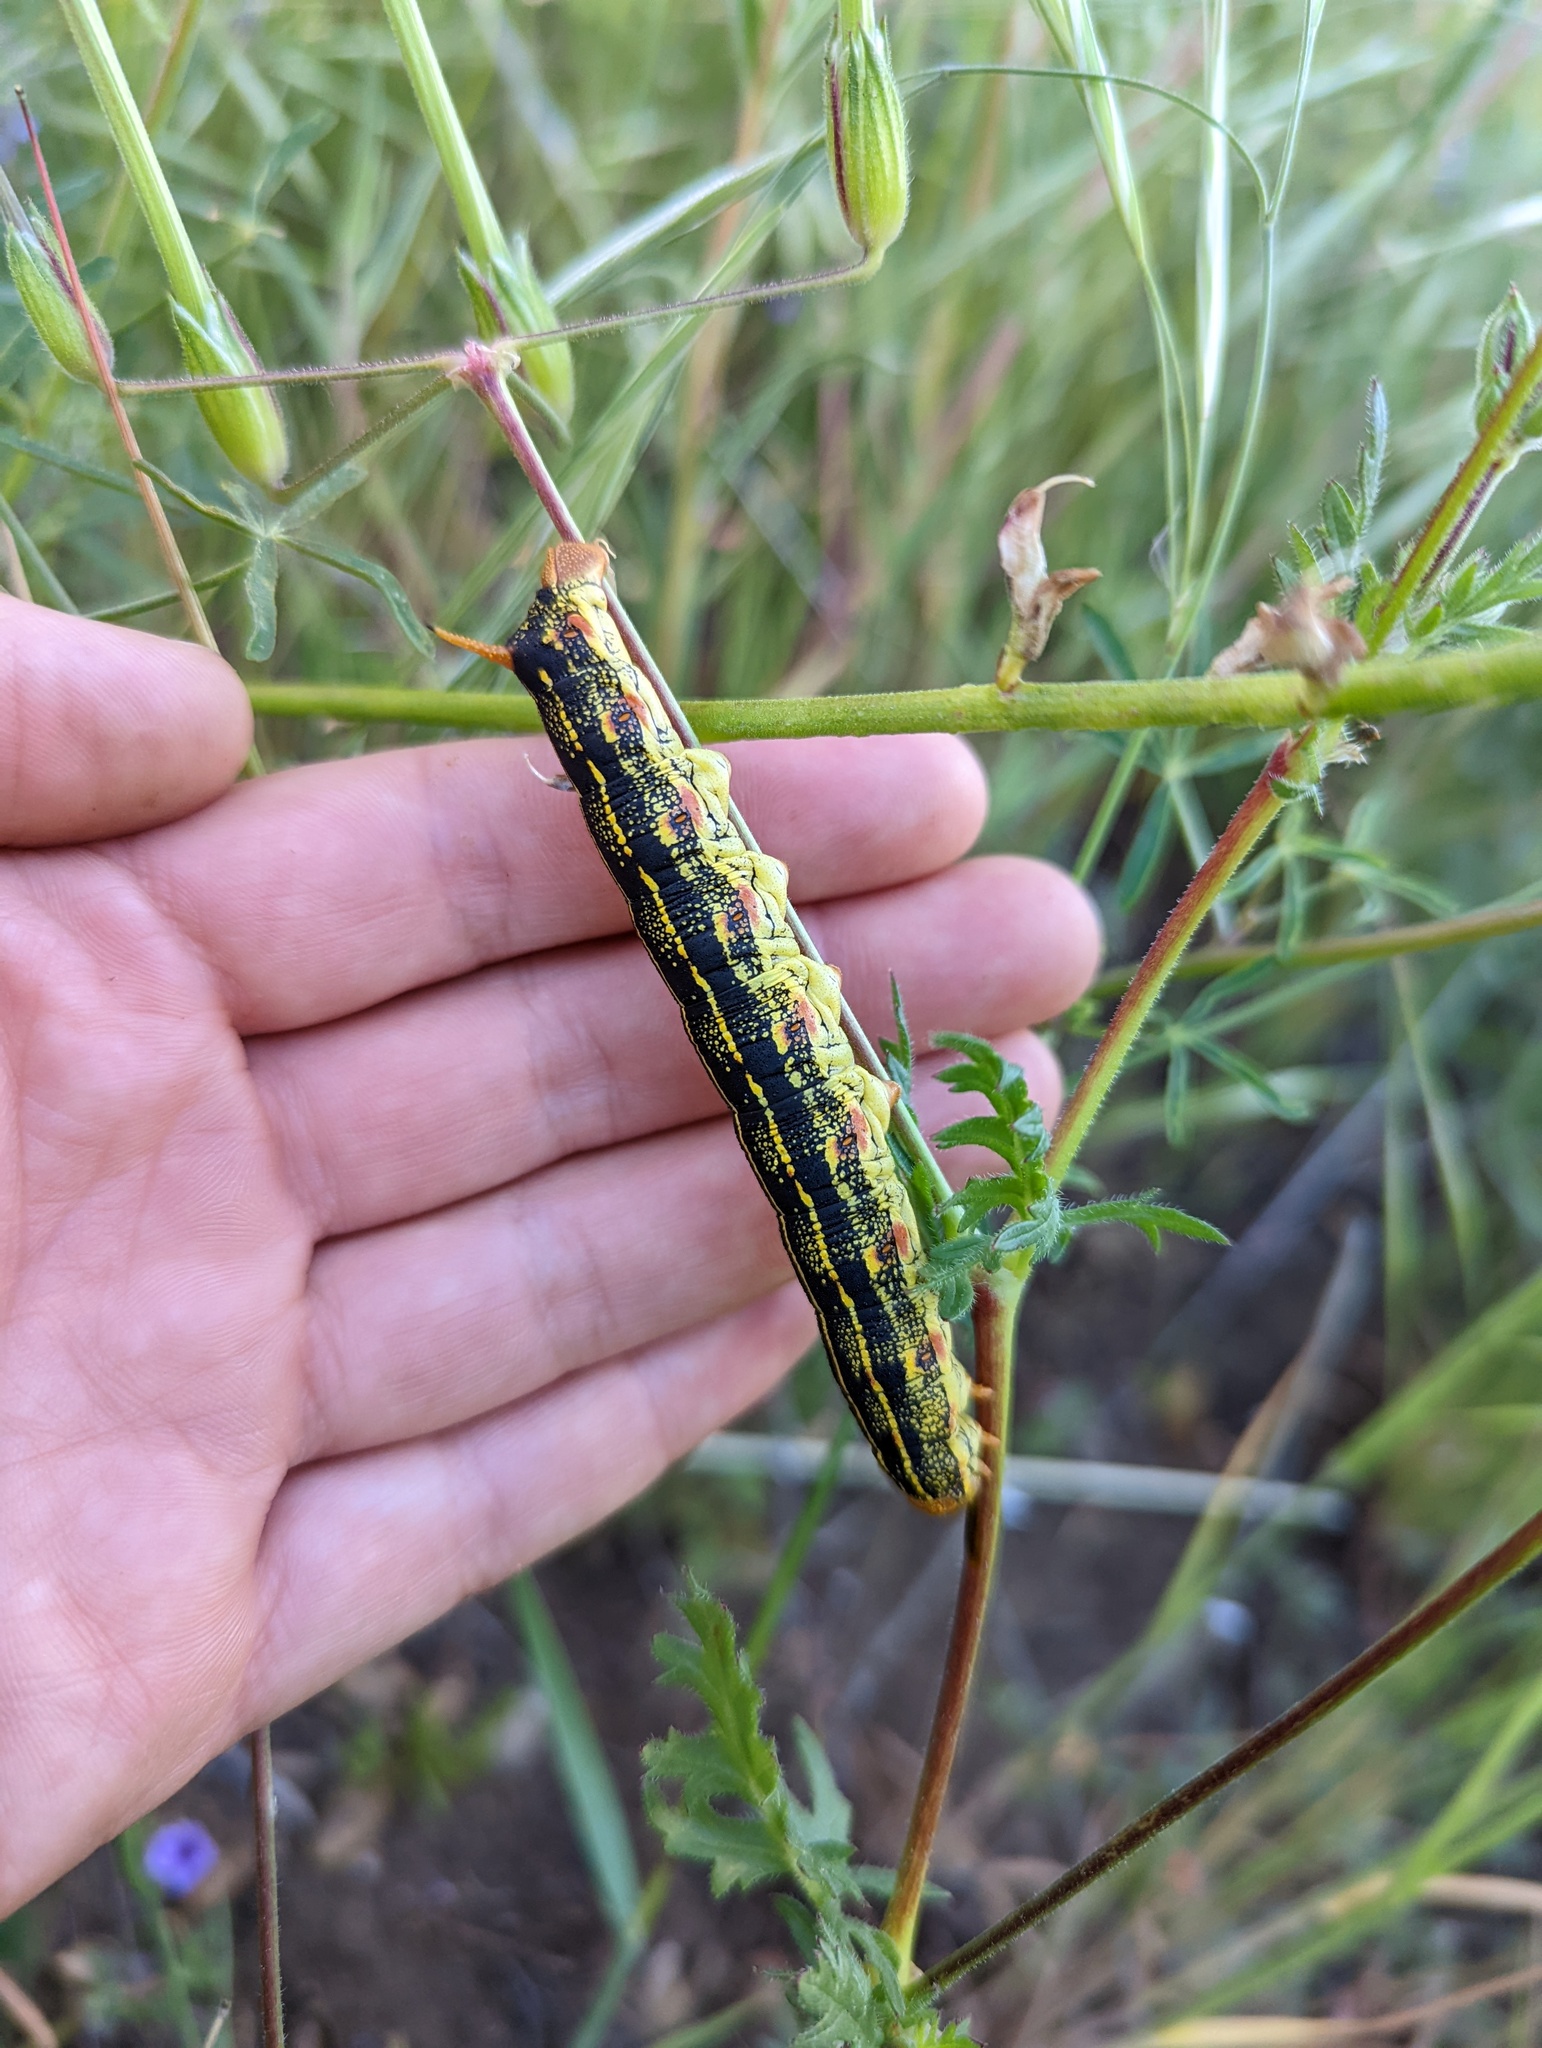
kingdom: Animalia
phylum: Arthropoda
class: Insecta
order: Lepidoptera
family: Sphingidae
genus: Hyles
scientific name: Hyles lineata
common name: White-lined sphinx
